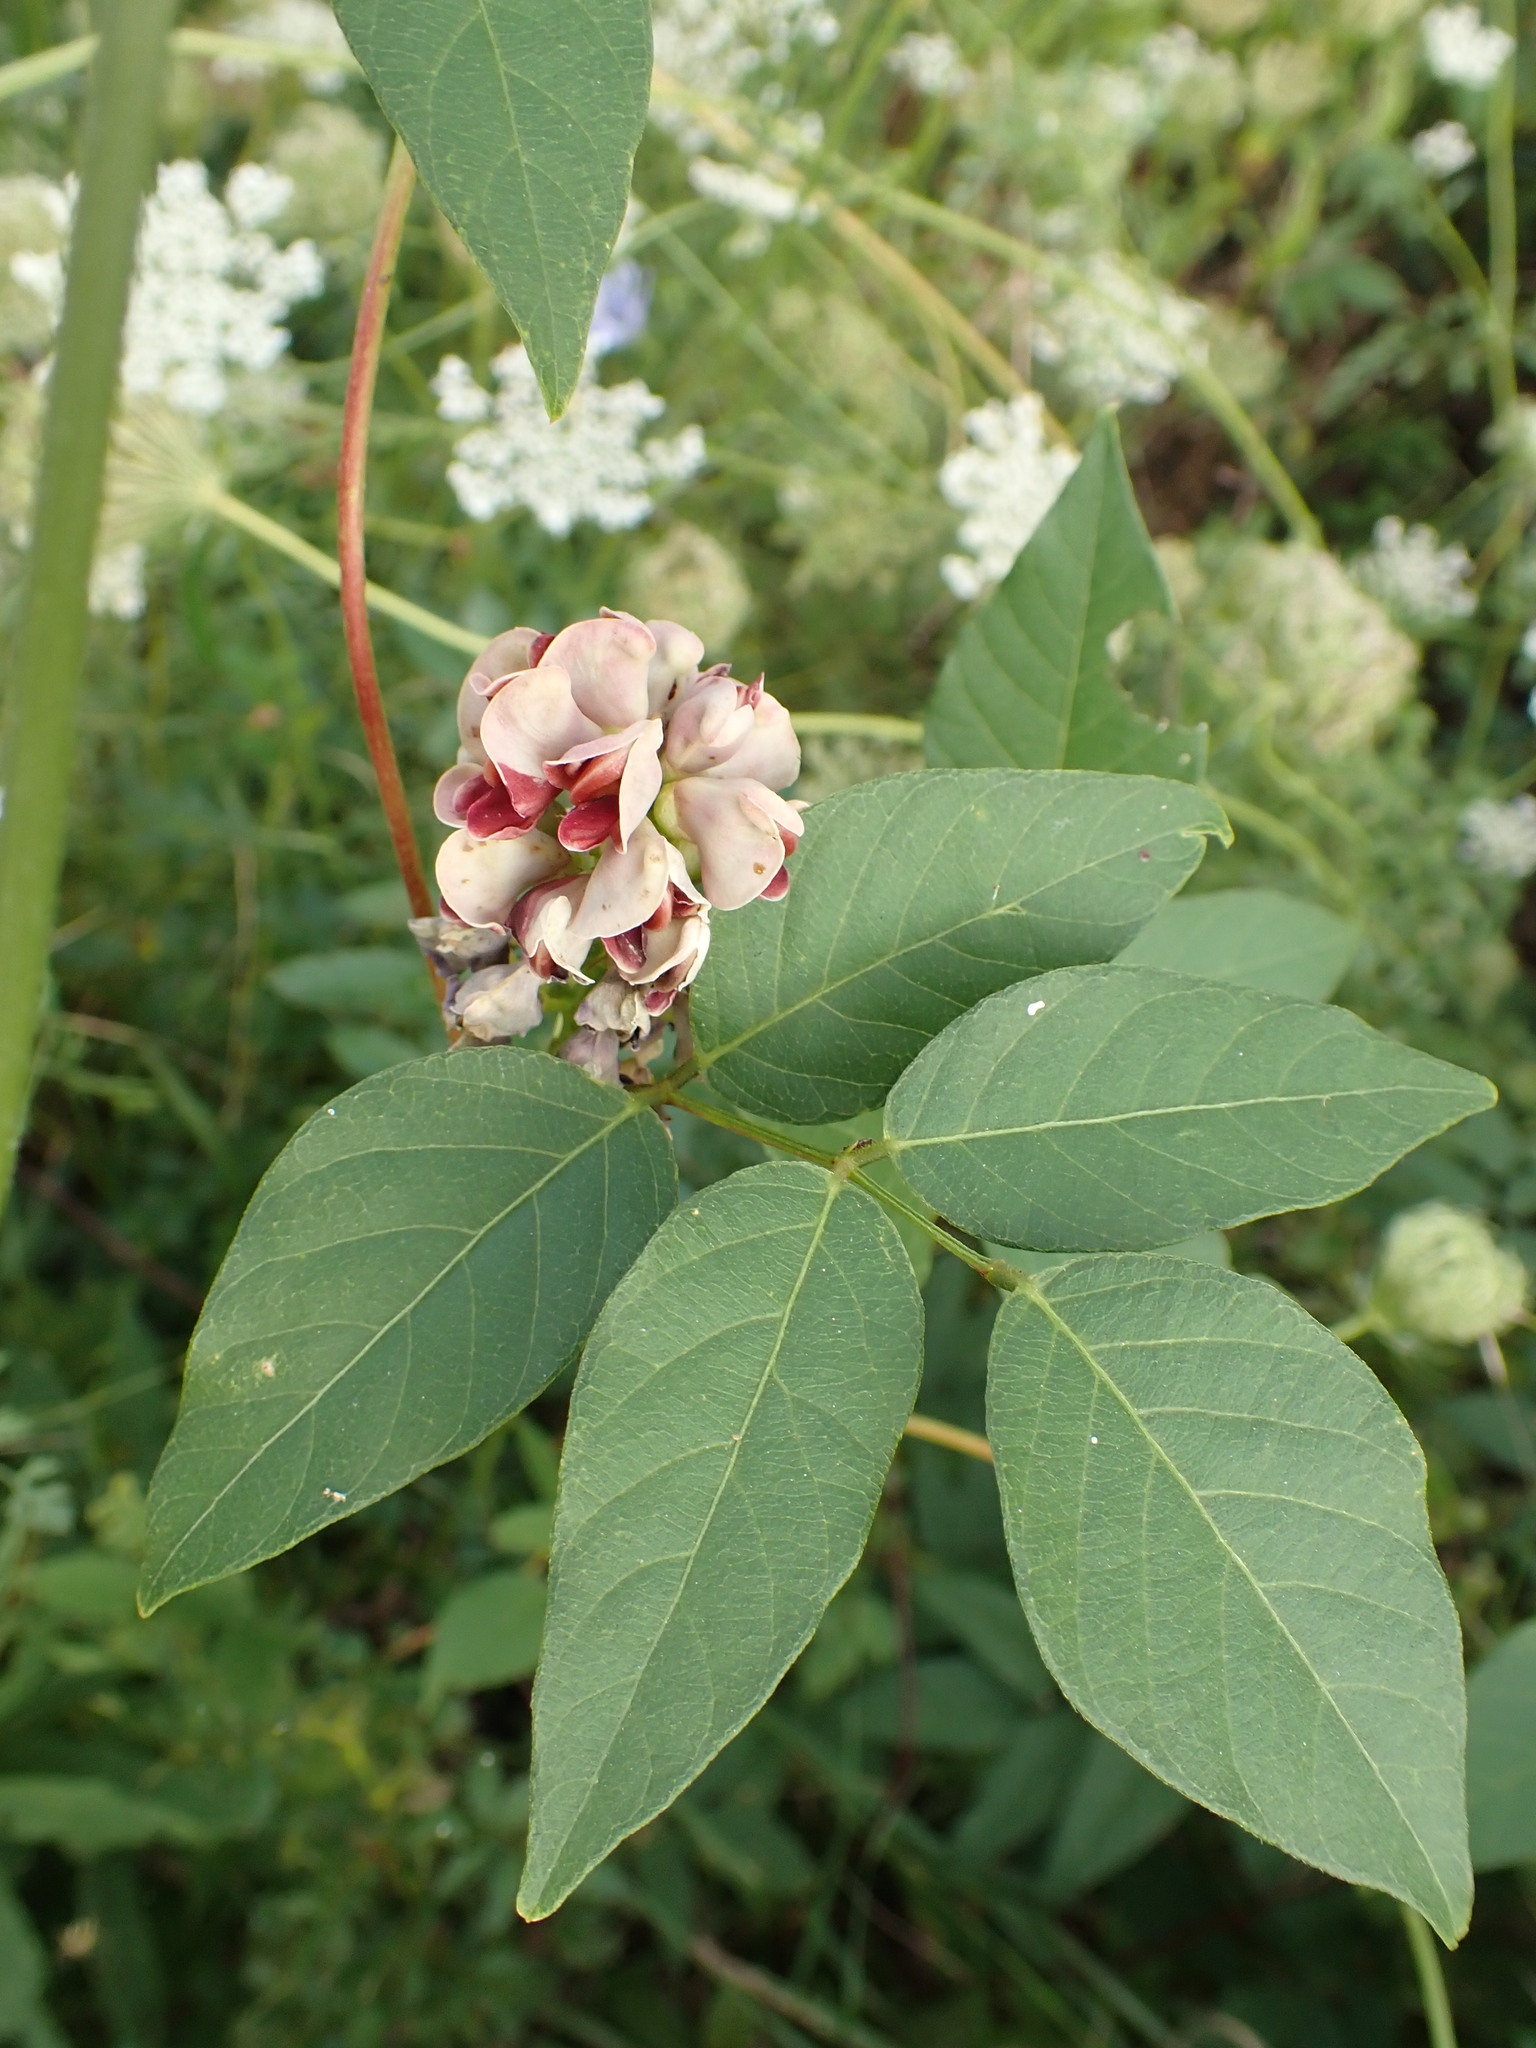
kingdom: Plantae
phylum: Tracheophyta
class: Magnoliopsida
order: Fabales
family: Fabaceae
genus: Apios
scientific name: Apios americana
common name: American potato-bean
